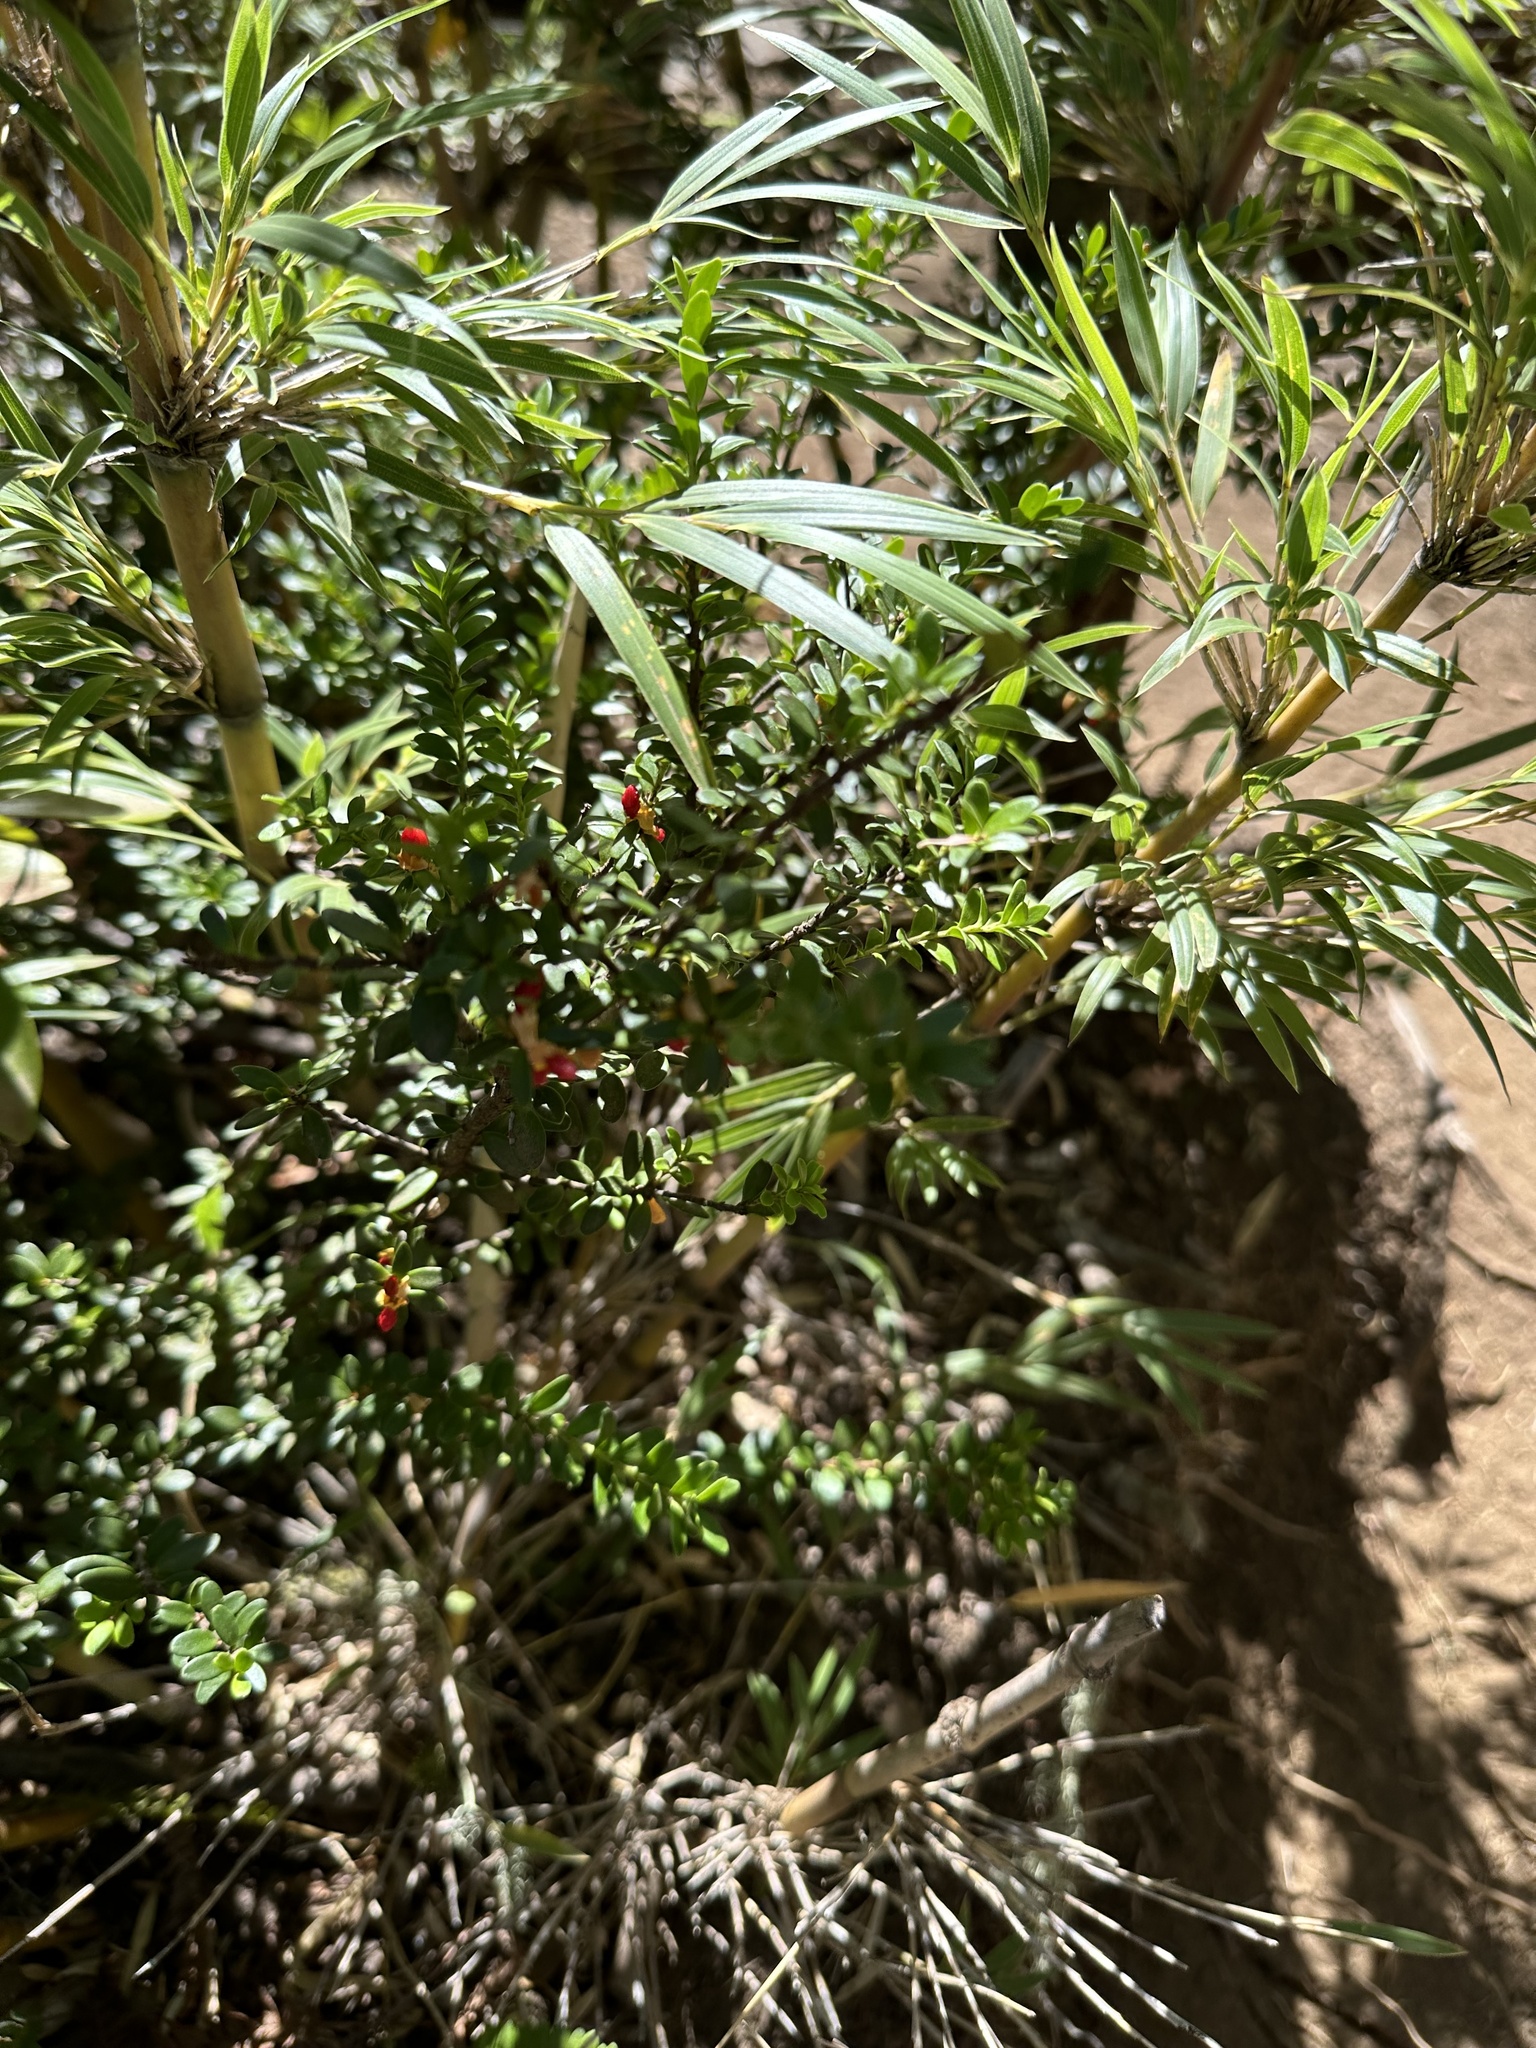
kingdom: Plantae
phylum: Tracheophyta
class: Magnoliopsida
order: Celastrales
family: Celastraceae
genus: Maytenus
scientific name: Maytenus disticha
